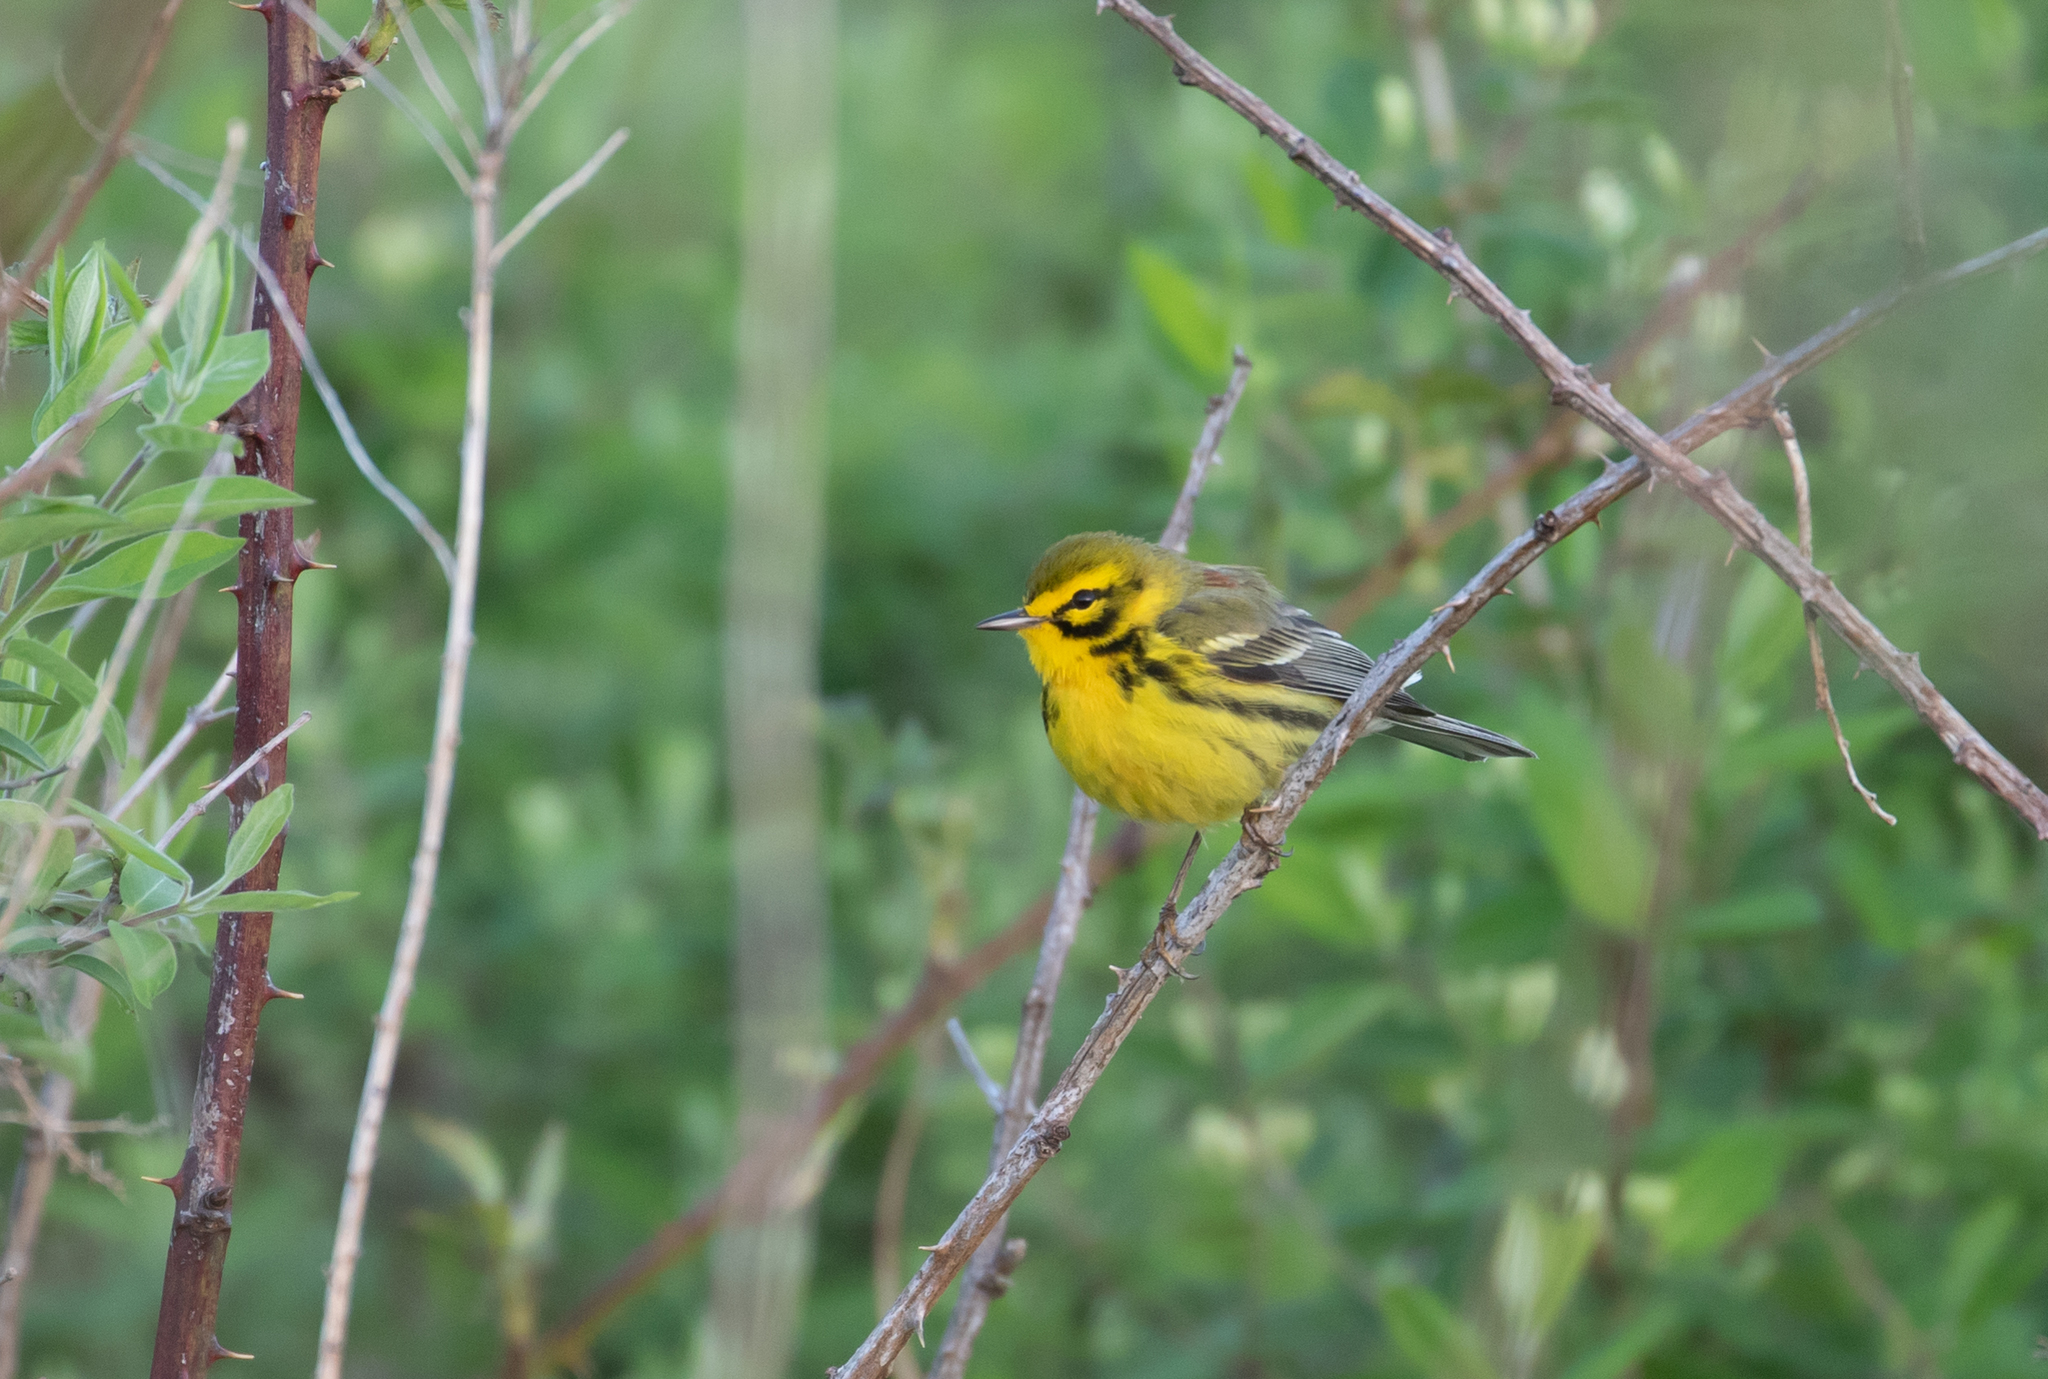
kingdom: Animalia
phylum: Chordata
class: Aves
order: Passeriformes
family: Parulidae
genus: Setophaga
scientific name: Setophaga discolor
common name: Prairie warbler
